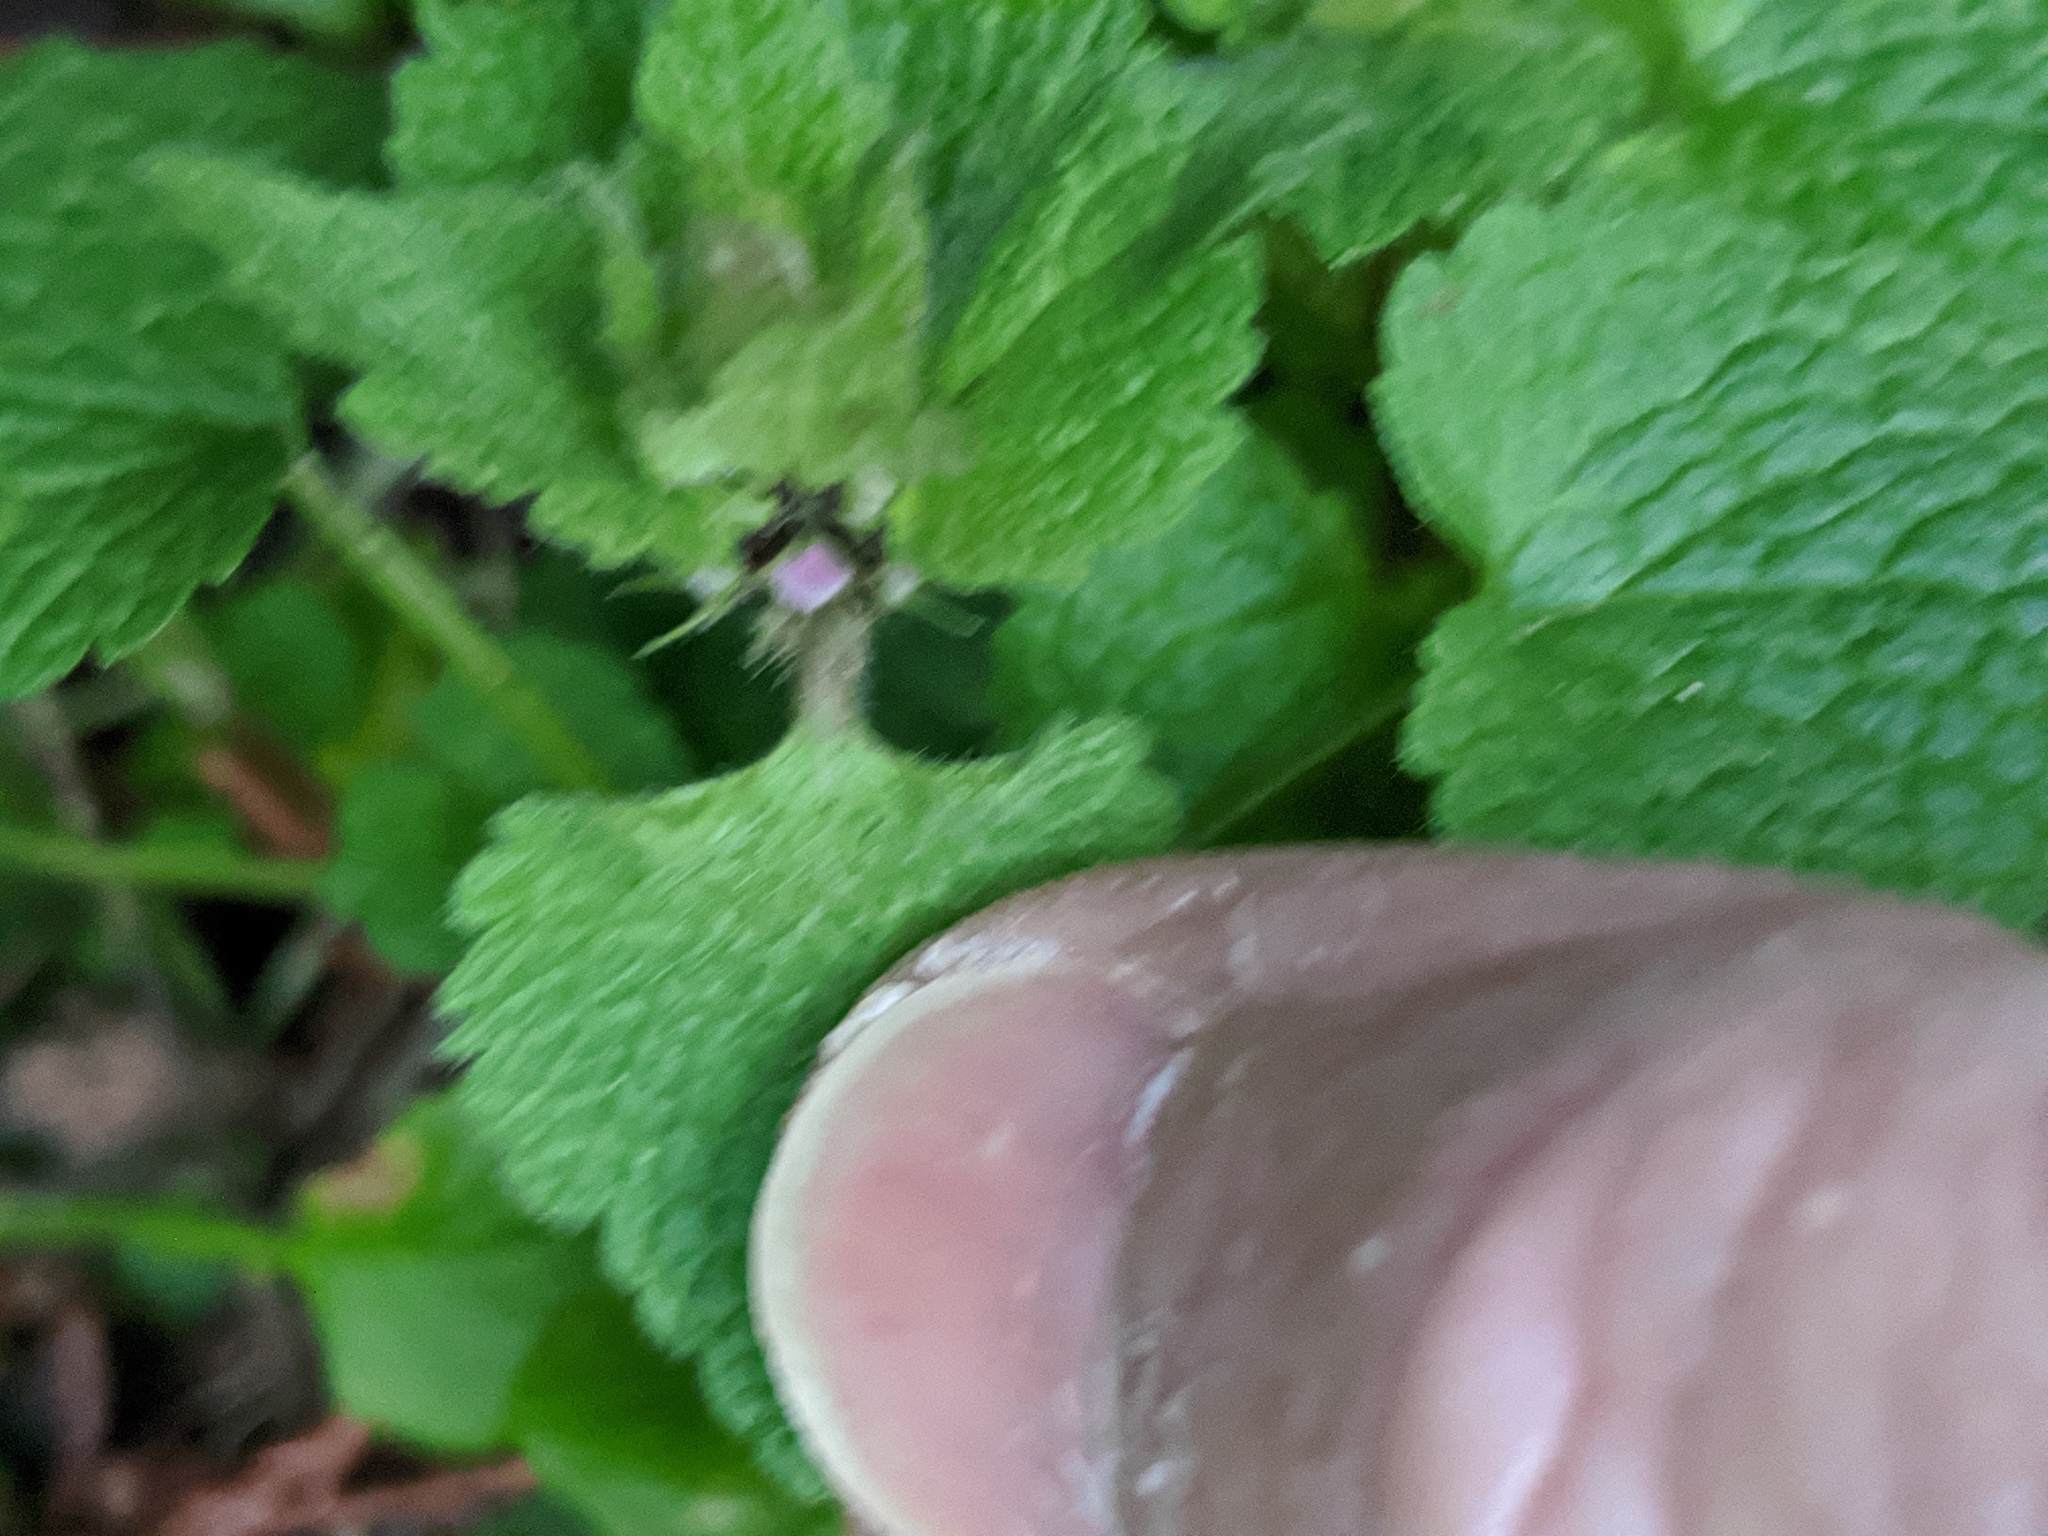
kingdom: Plantae
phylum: Tracheophyta
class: Magnoliopsida
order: Lamiales
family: Lamiaceae
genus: Lamium
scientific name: Lamium purpureum
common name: Red dead-nettle
